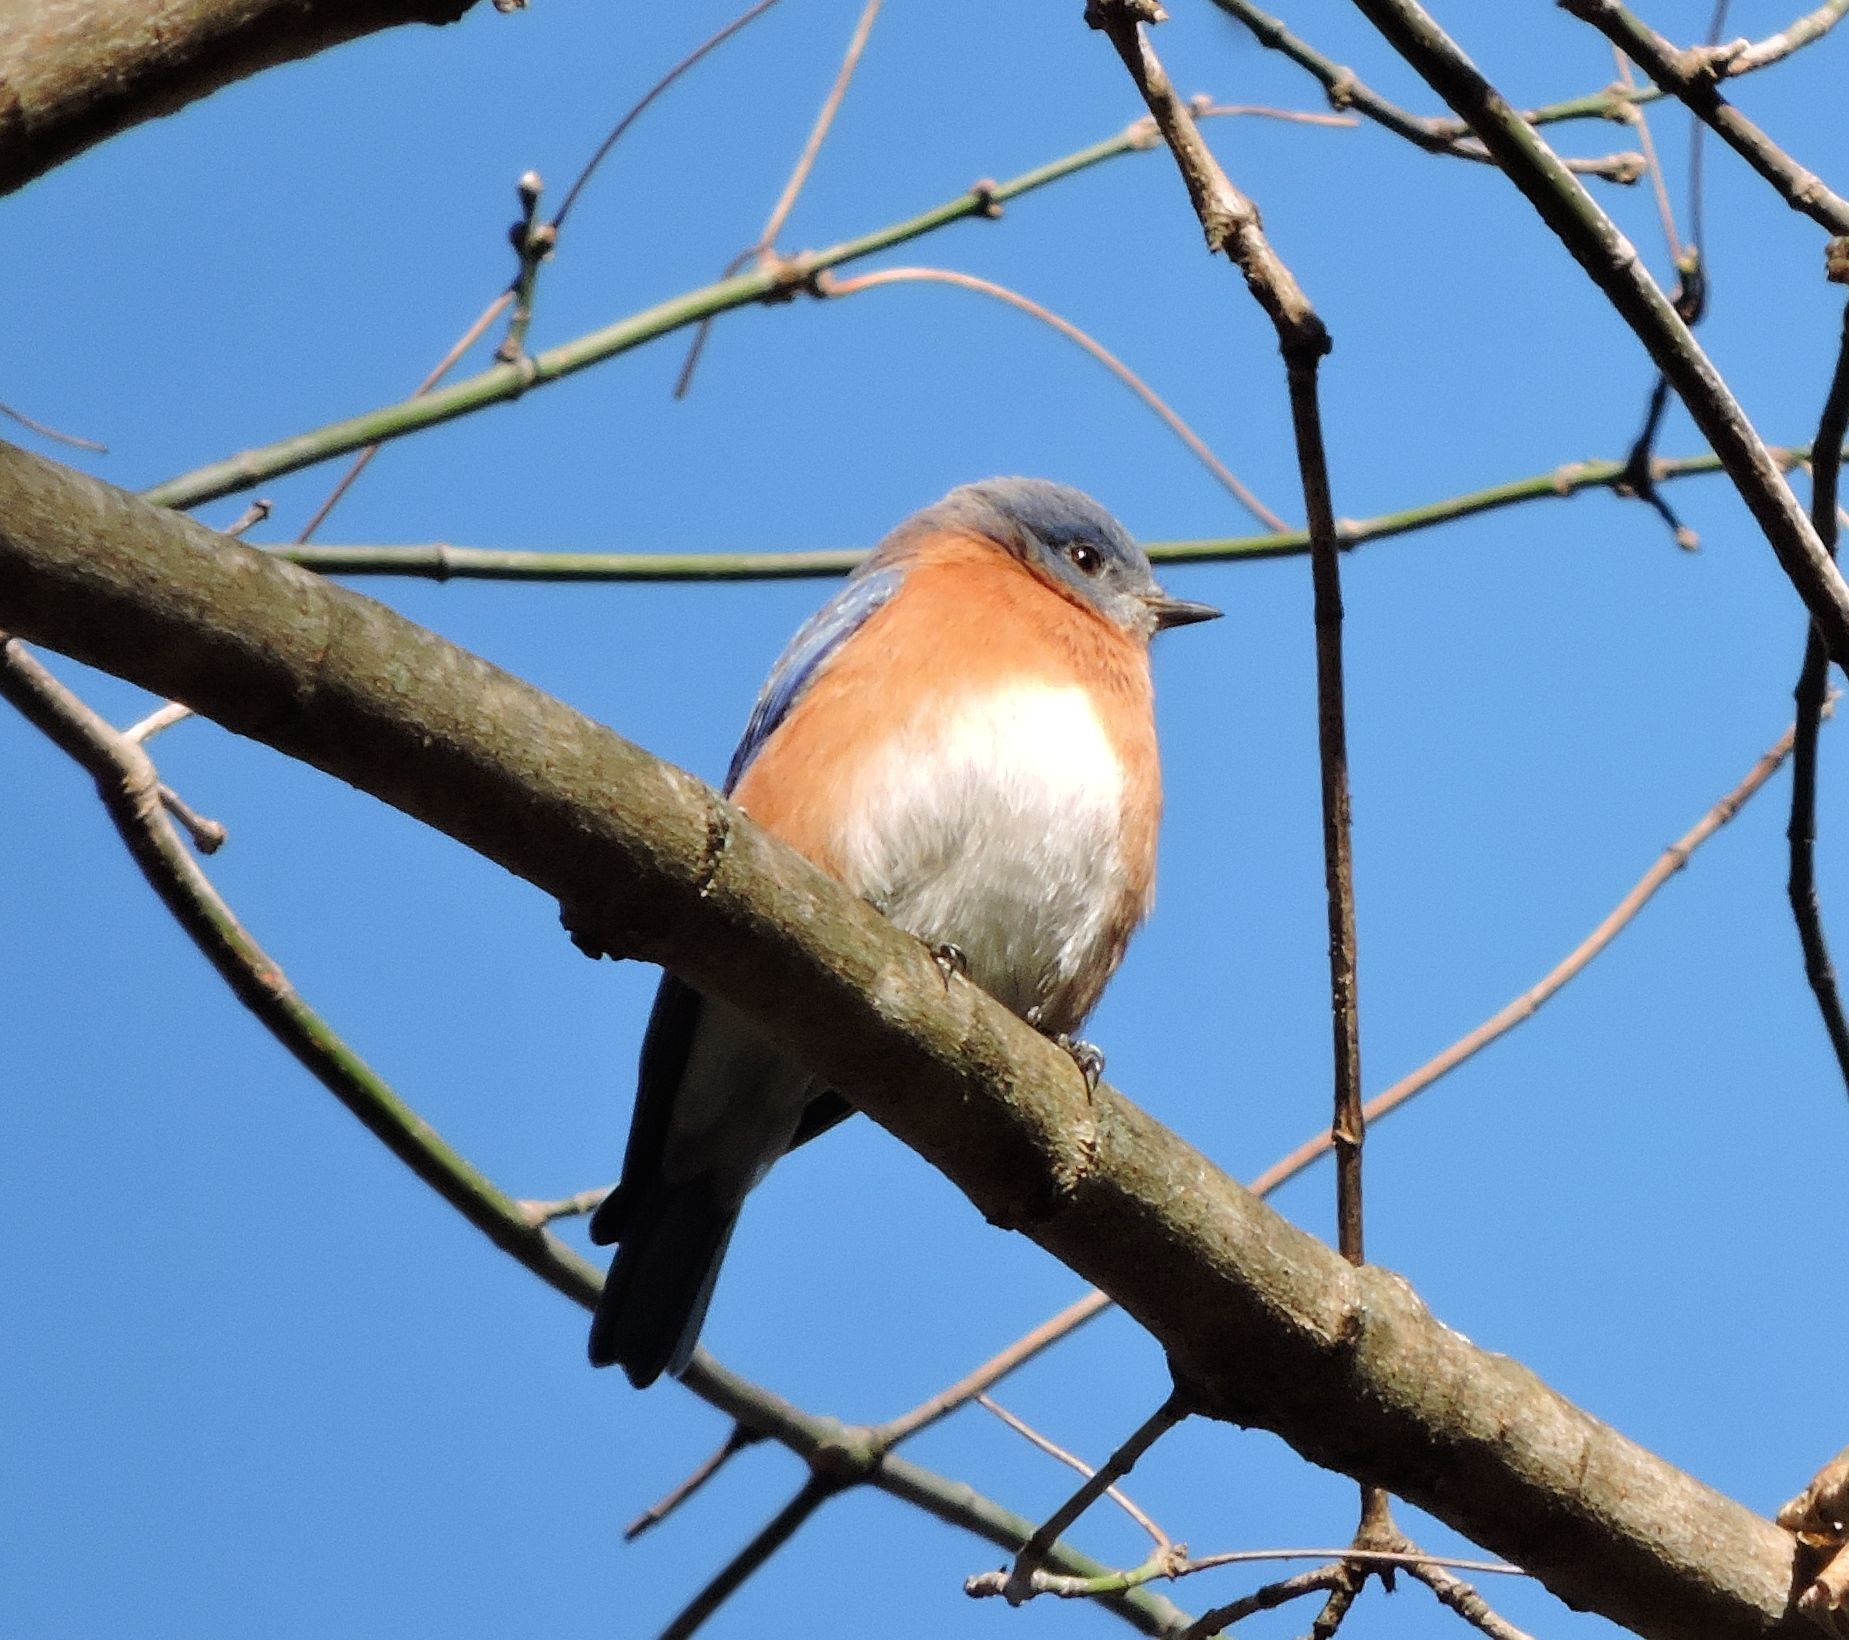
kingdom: Animalia
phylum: Chordata
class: Aves
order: Passeriformes
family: Turdidae
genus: Sialia
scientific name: Sialia sialis
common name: Eastern bluebird
